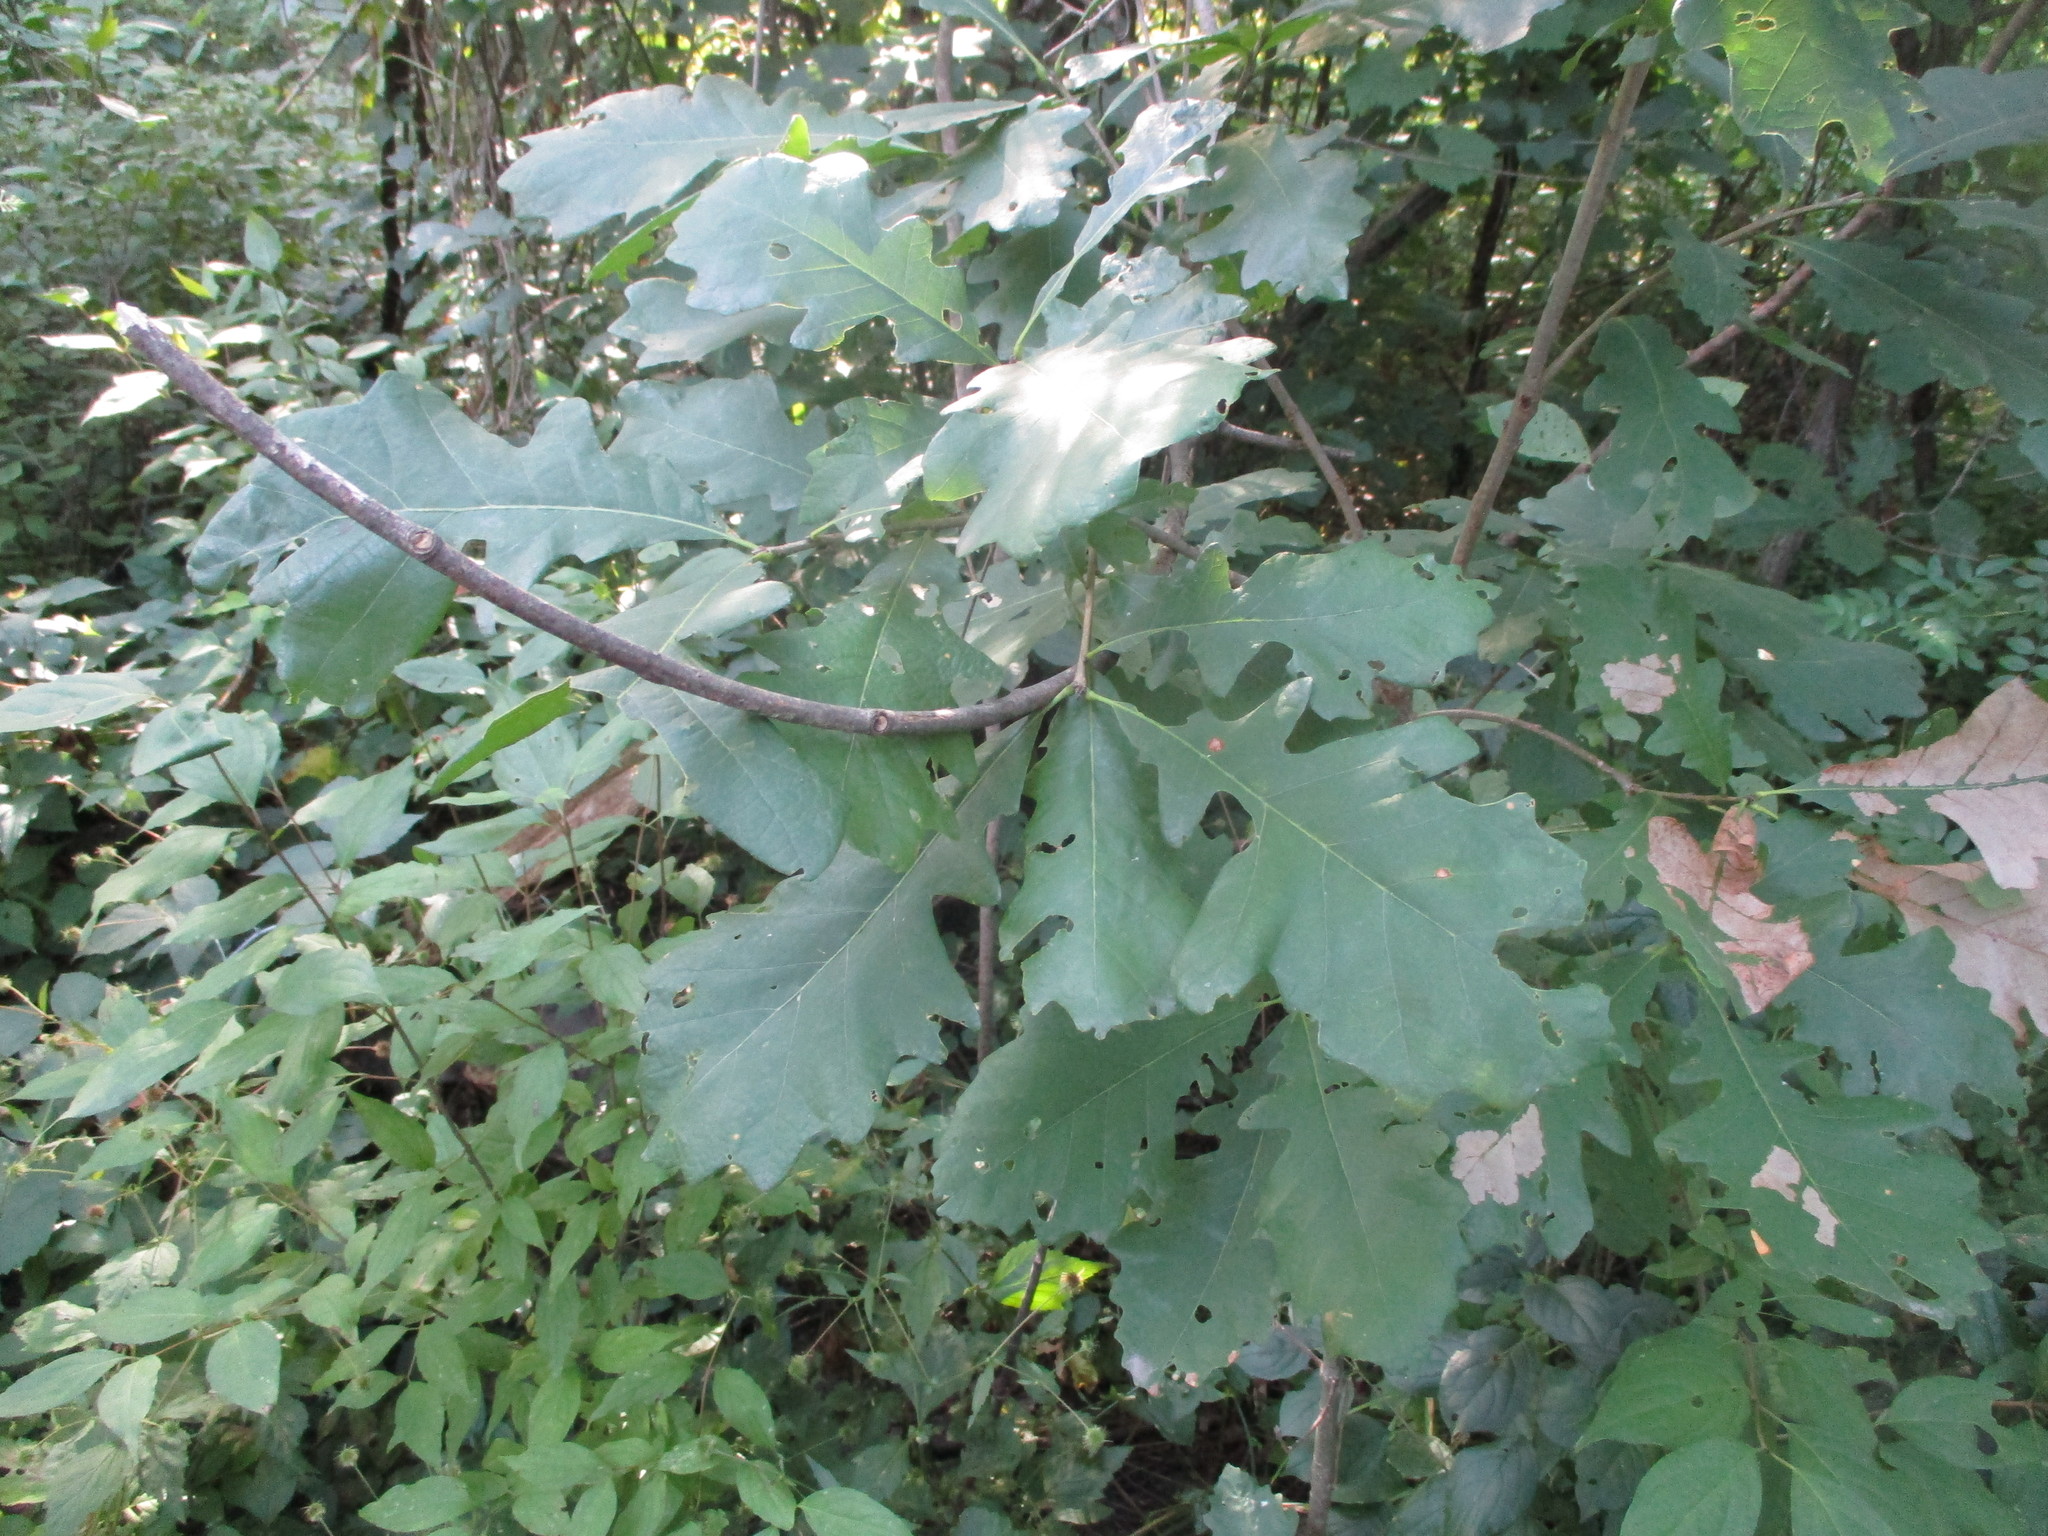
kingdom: Plantae
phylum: Tracheophyta
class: Magnoliopsida
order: Fagales
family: Fagaceae
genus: Quercus
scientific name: Quercus macrocarpa
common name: Bur oak
